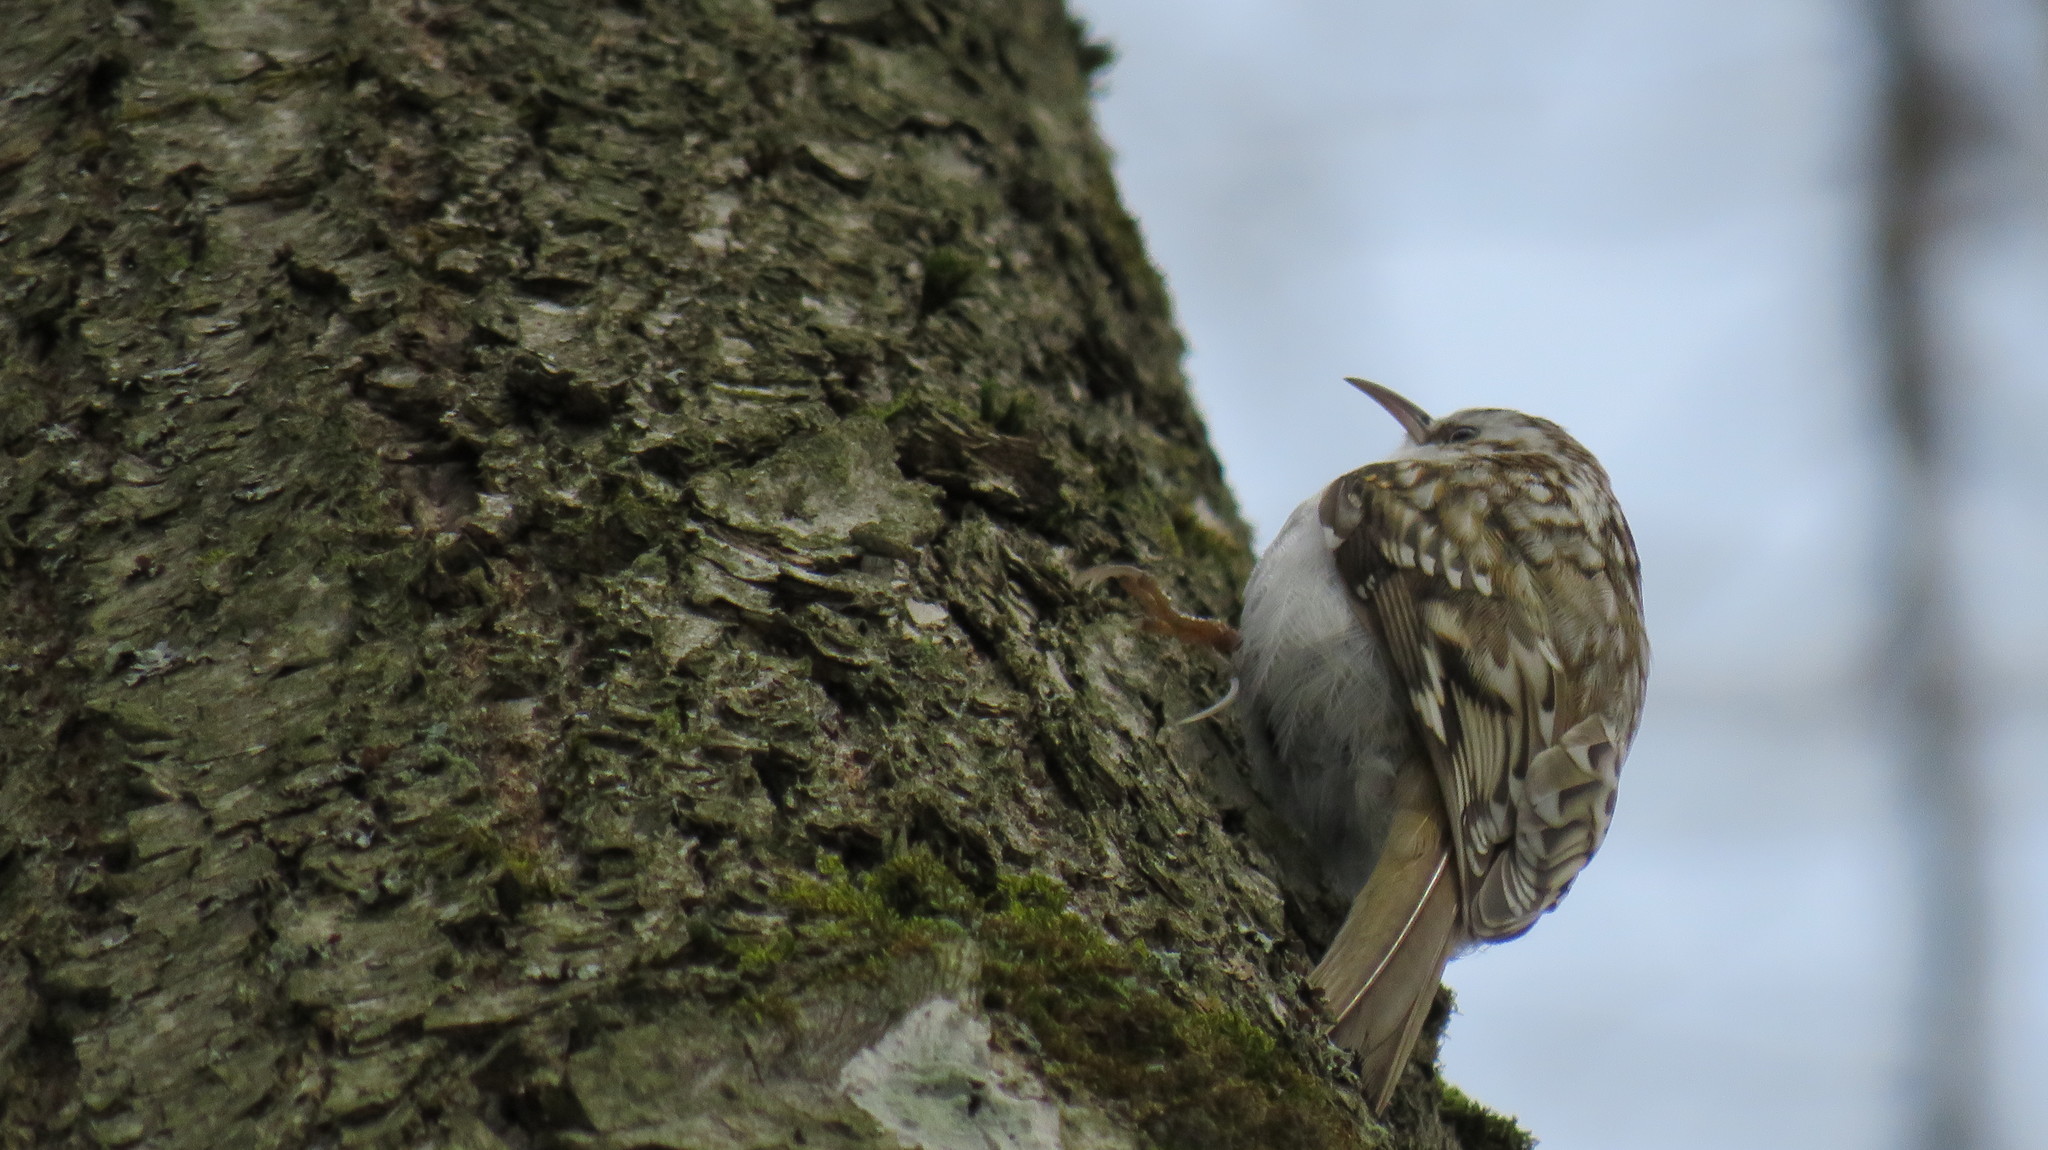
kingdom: Animalia
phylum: Chordata
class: Aves
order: Passeriformes
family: Certhiidae
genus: Certhia
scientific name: Certhia familiaris
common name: Eurasian treecreeper
